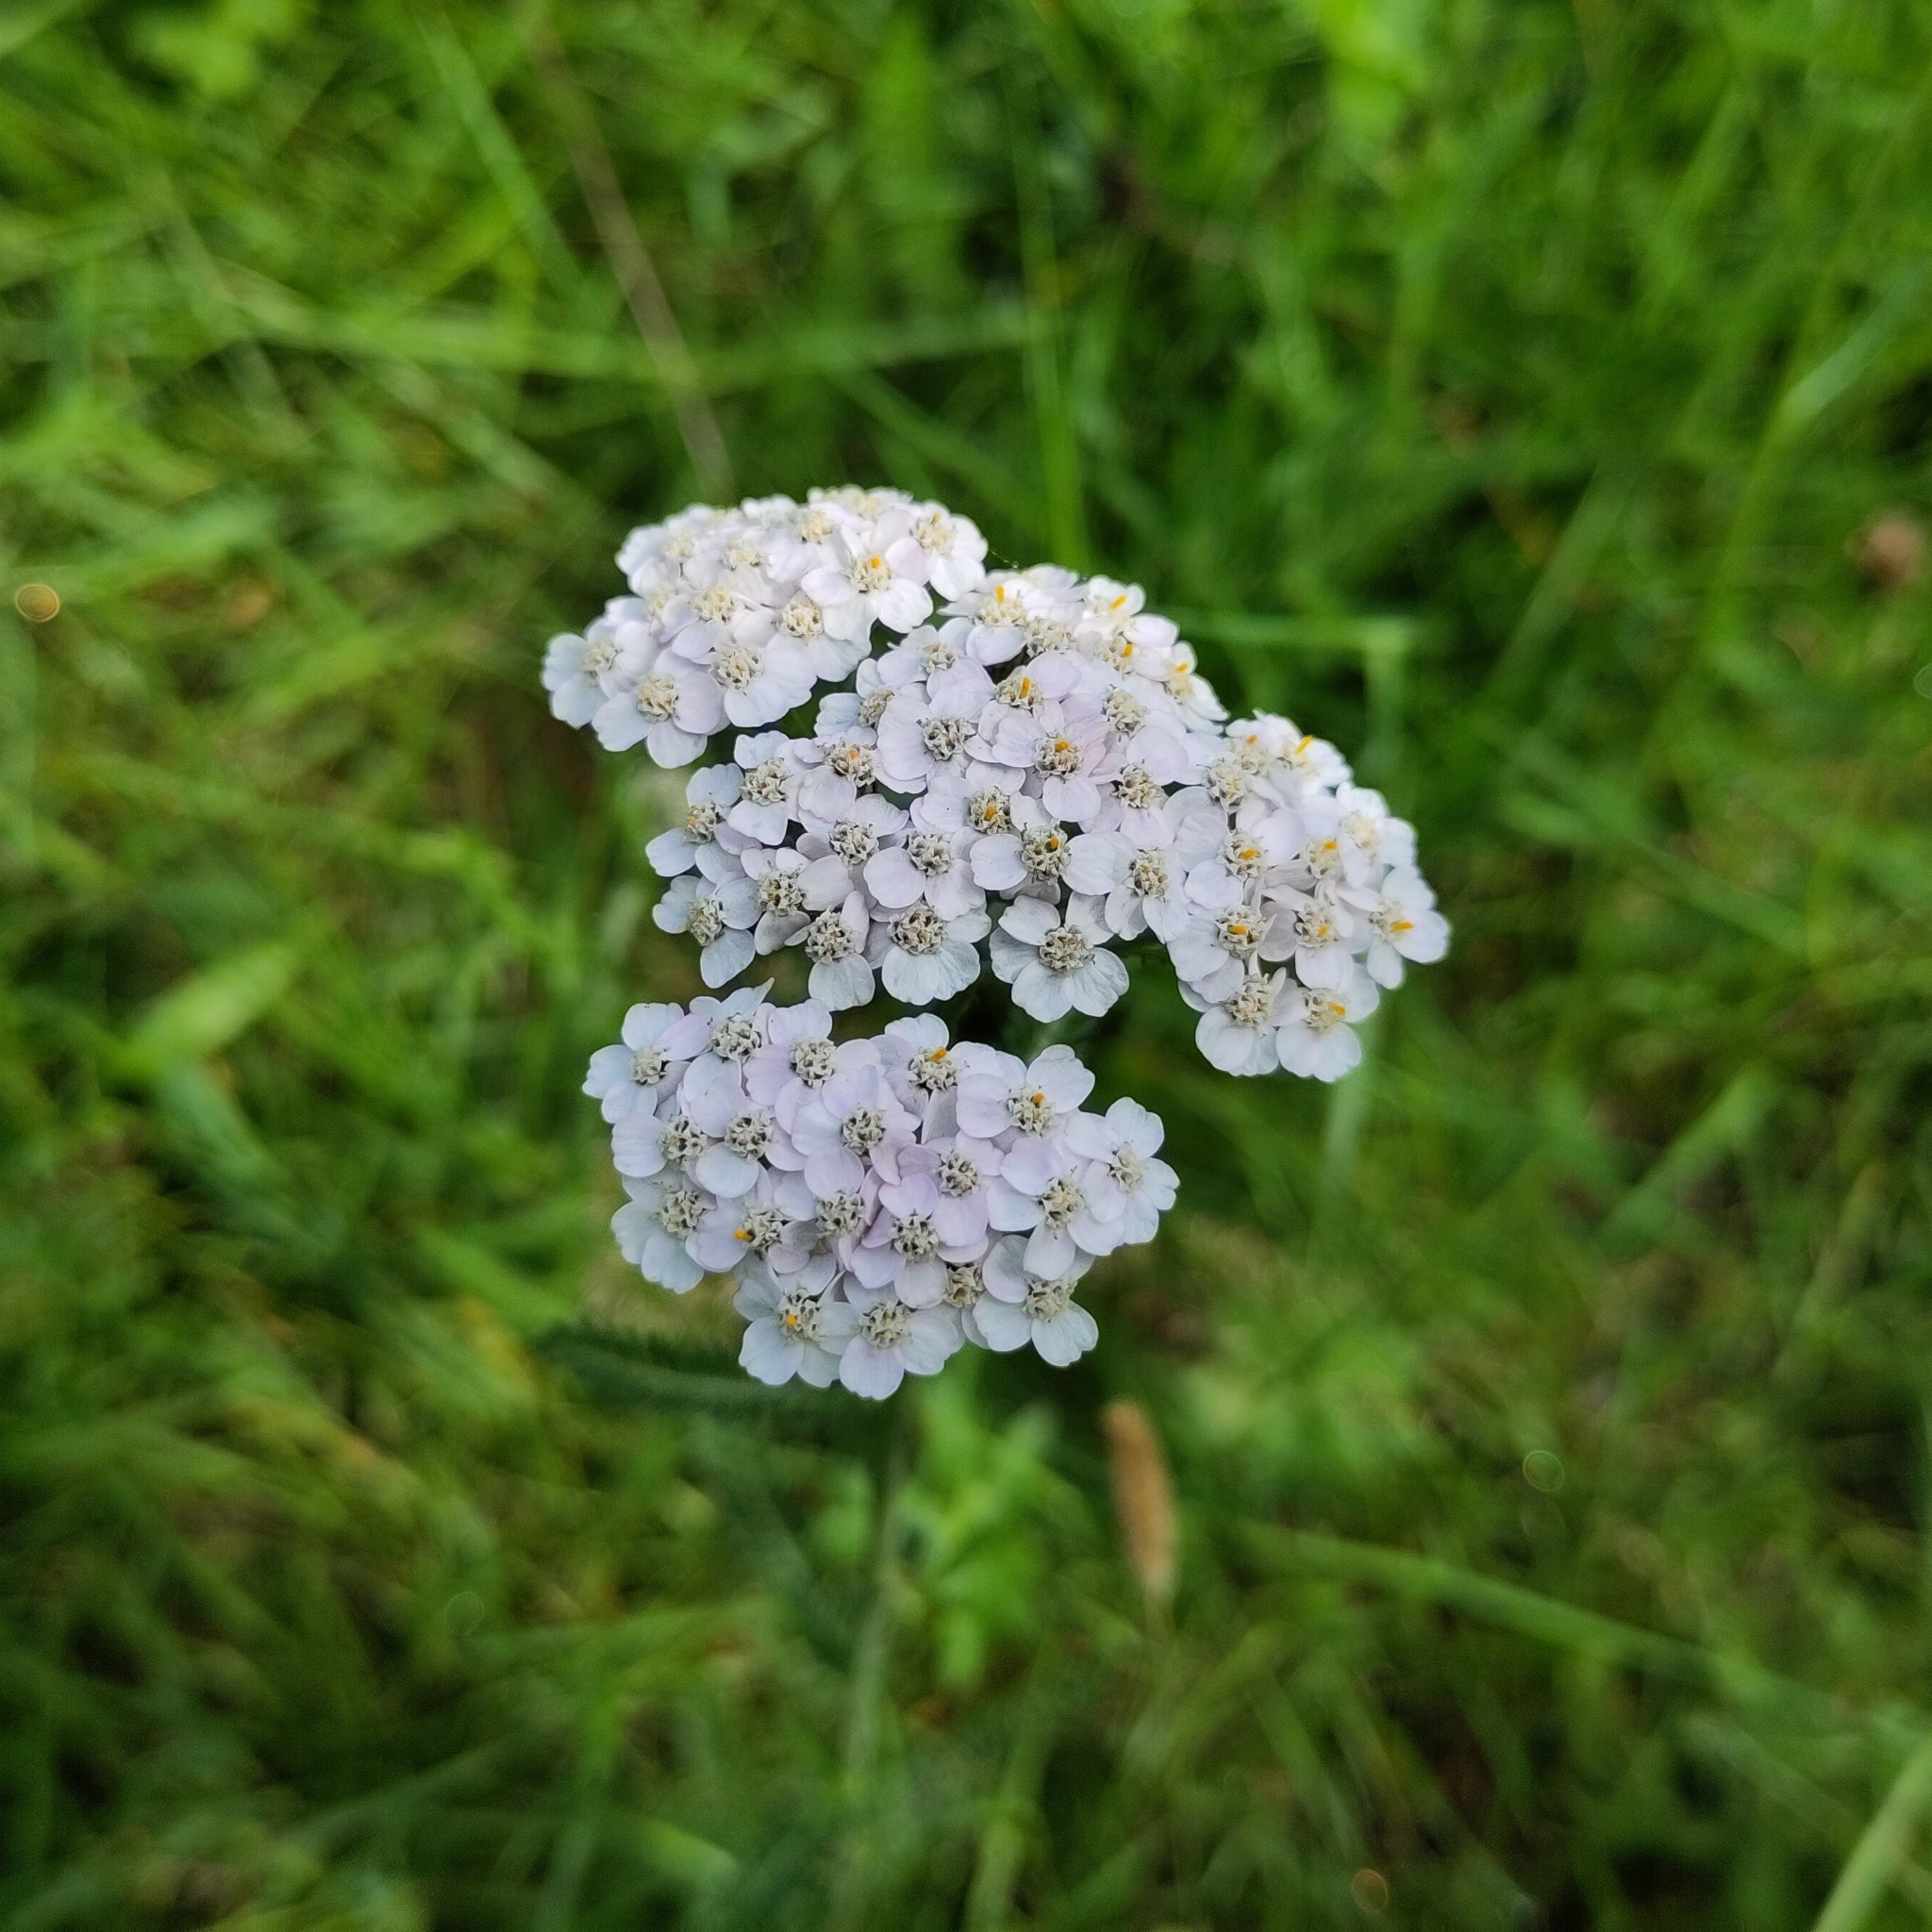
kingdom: Plantae
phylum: Tracheophyta
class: Magnoliopsida
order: Asterales
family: Asteraceae
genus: Achillea
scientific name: Achillea millefolium
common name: Yarrow
